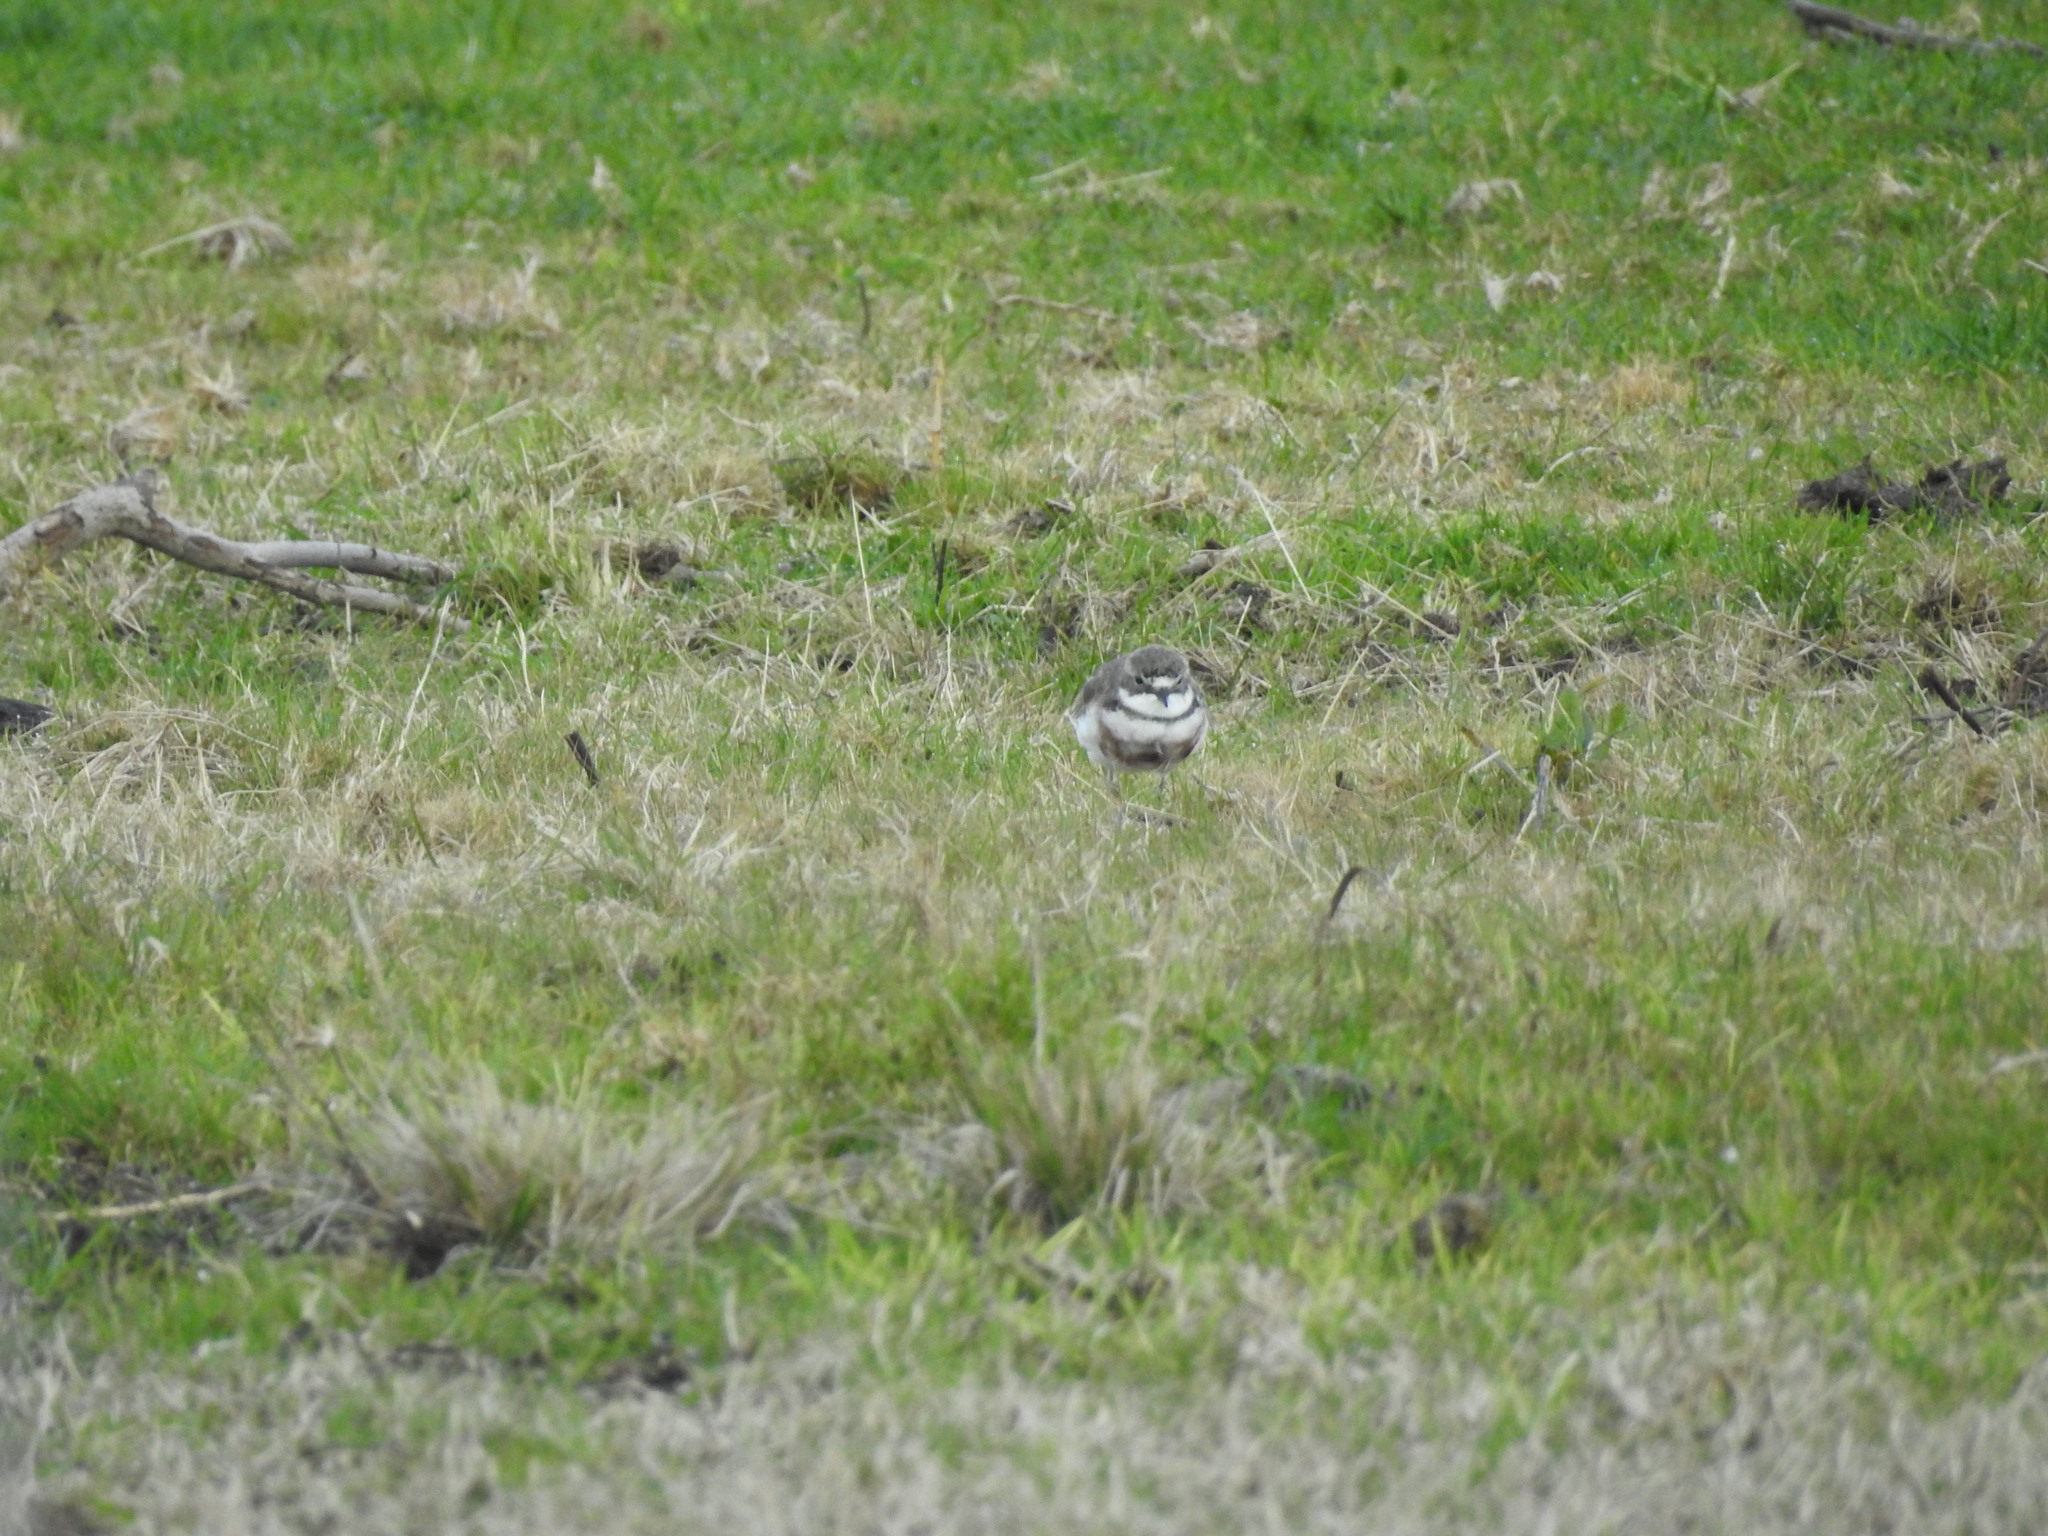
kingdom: Animalia
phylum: Chordata
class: Aves
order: Charadriiformes
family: Charadriidae
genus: Anarhynchus
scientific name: Anarhynchus
